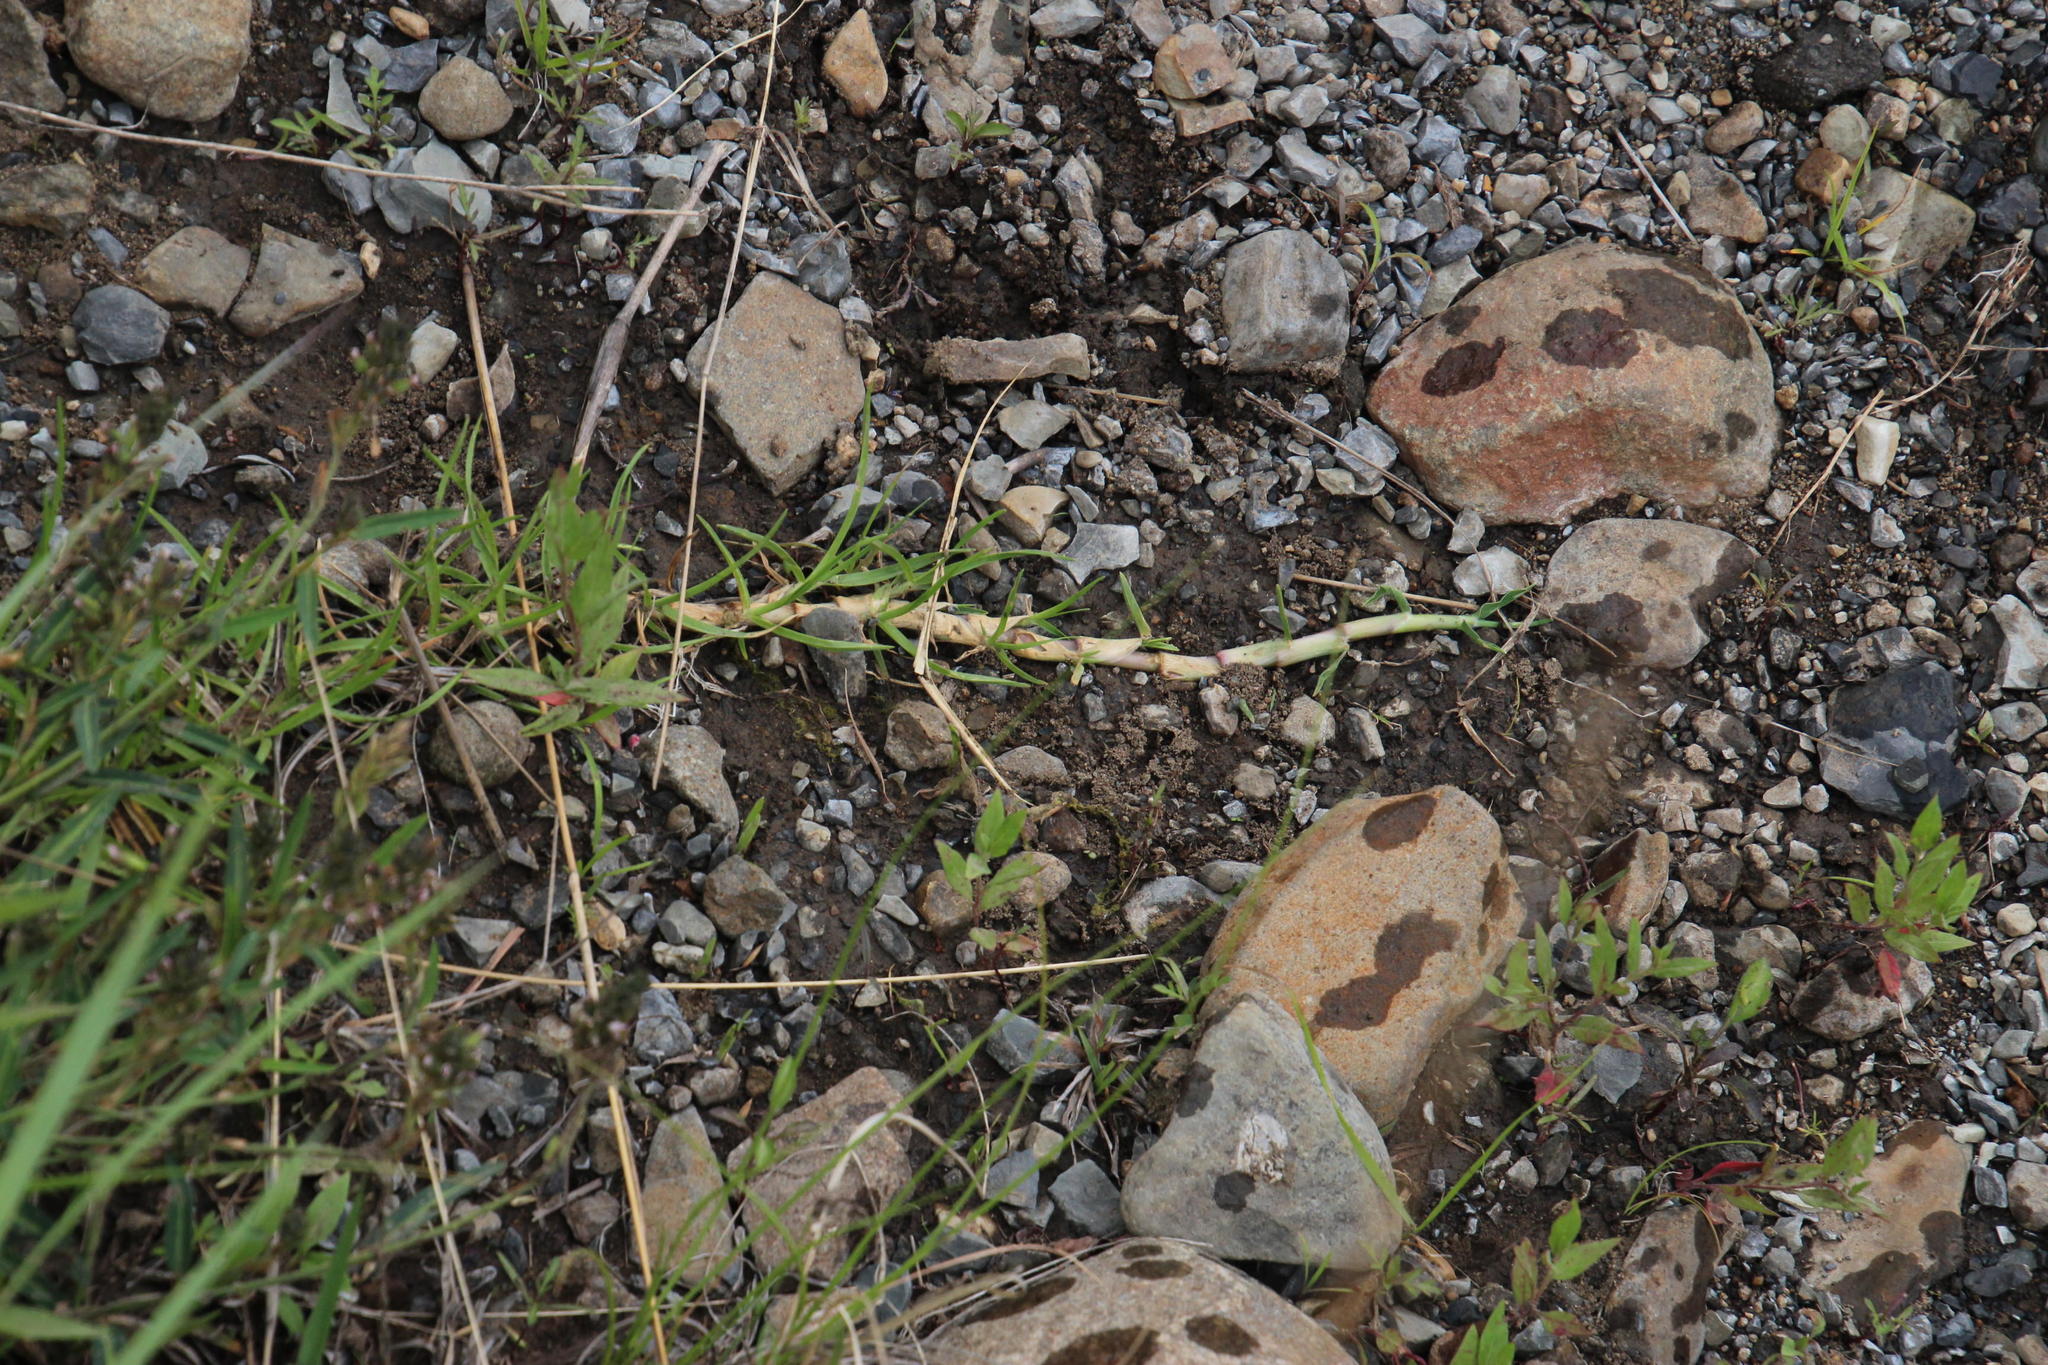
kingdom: Plantae
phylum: Tracheophyta
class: Liliopsida
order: Poales
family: Poaceae
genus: Cenchrus
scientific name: Cenchrus clandestinus
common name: Kikuyugrass
